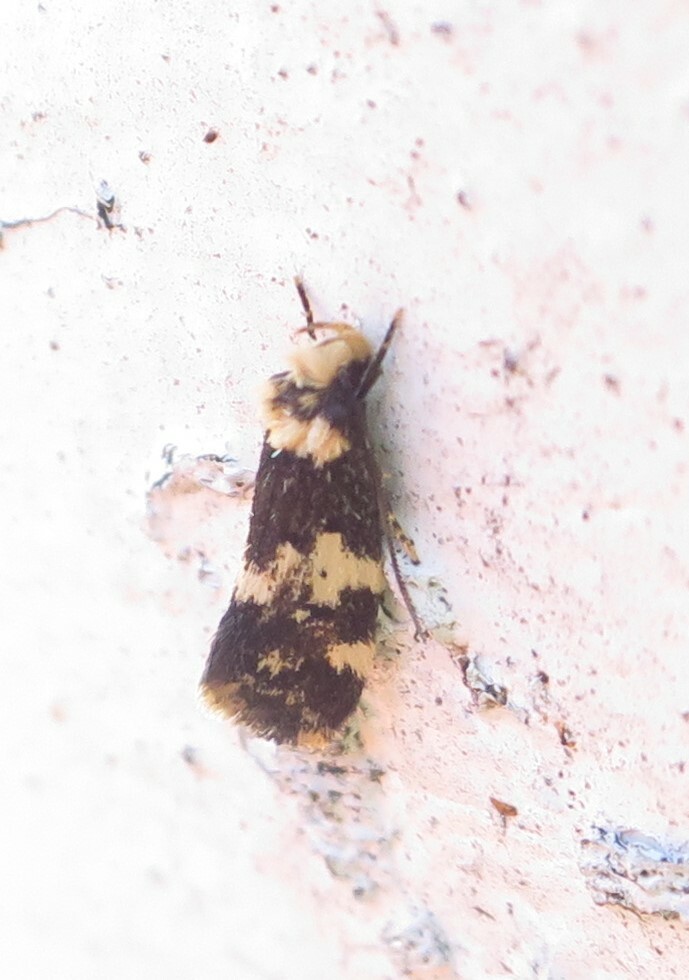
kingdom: Animalia
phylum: Arthropoda
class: Insecta
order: Lepidoptera
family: Oecophoridae
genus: Sphyrelata
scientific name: Sphyrelata amotella
